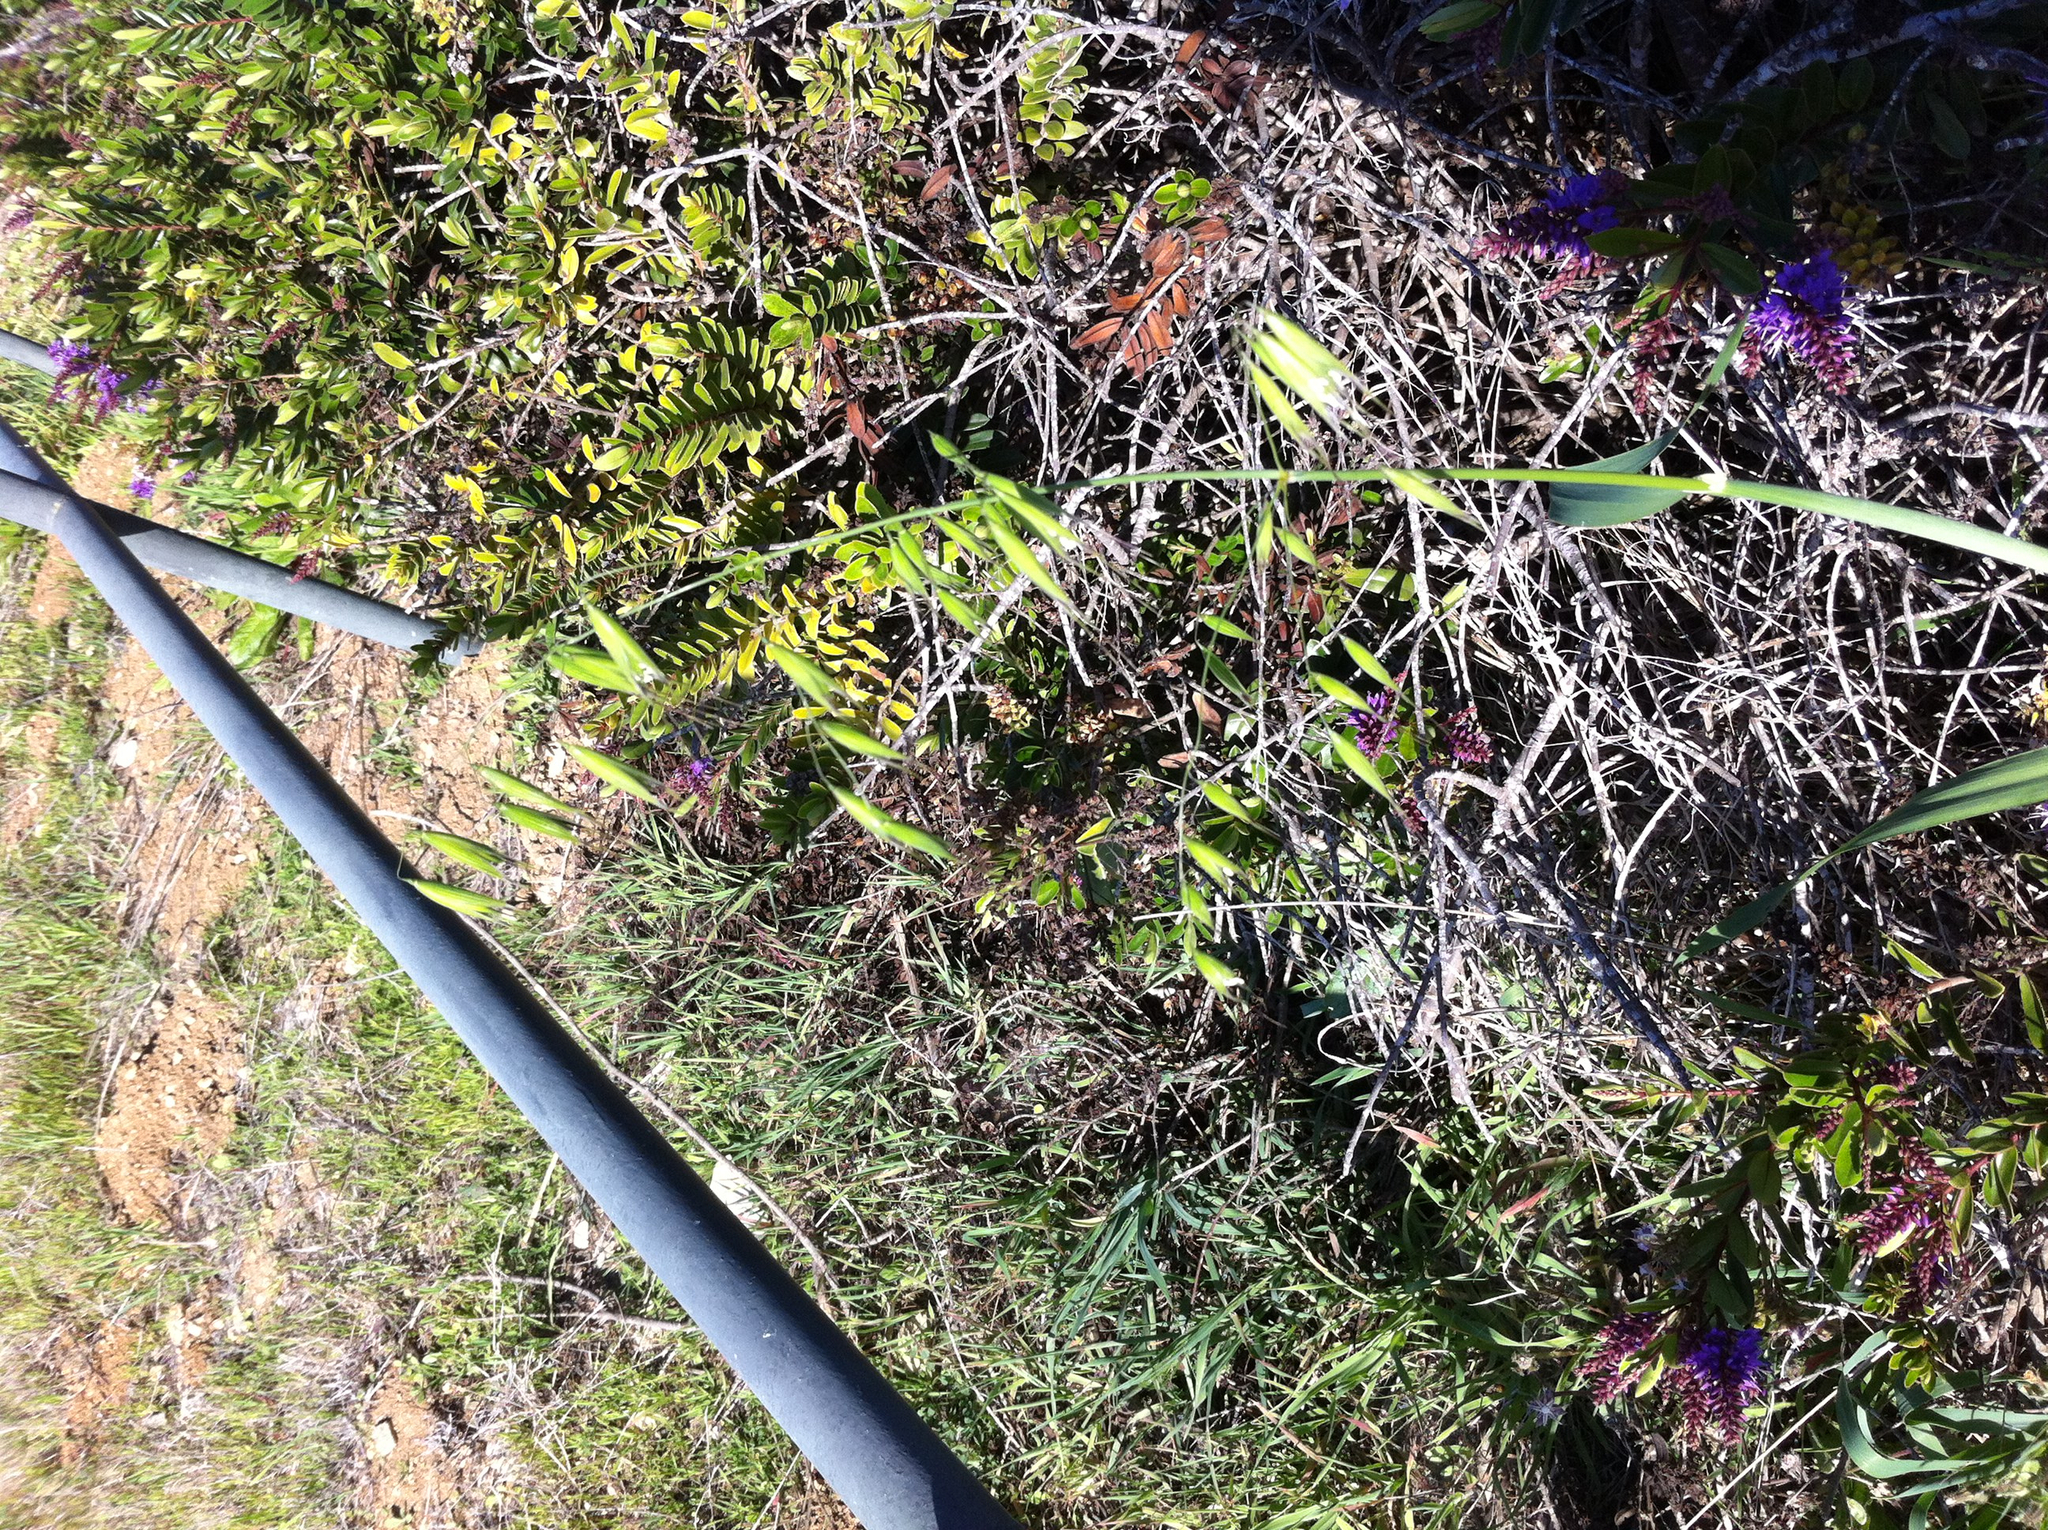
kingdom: Plantae
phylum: Tracheophyta
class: Liliopsida
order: Poales
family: Poaceae
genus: Avena
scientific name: Avena fatua
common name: Wild oat
